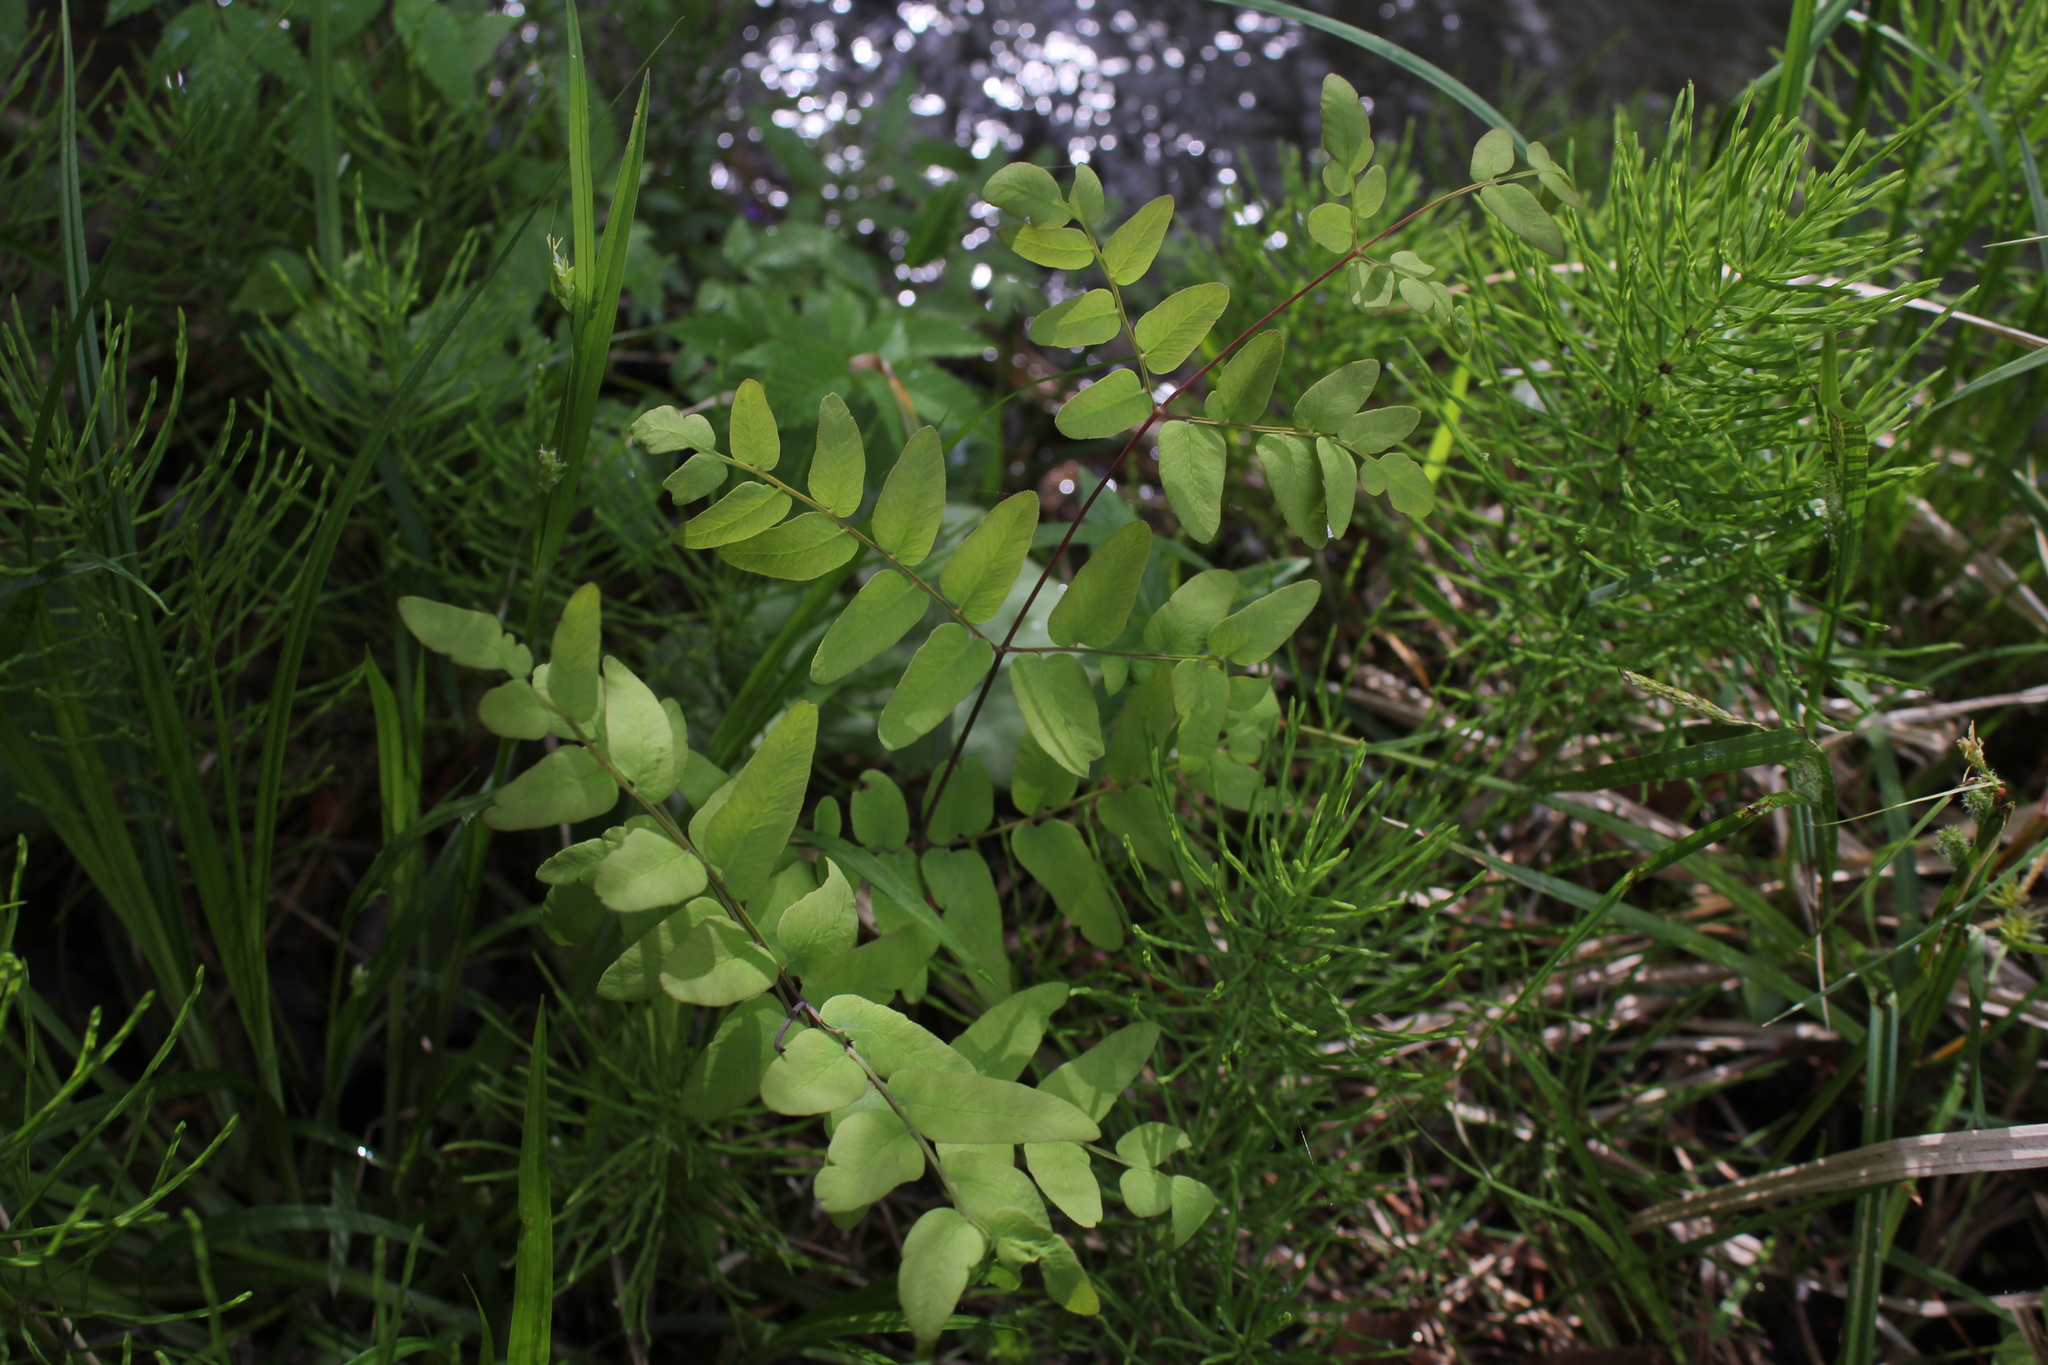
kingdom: Plantae
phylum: Tracheophyta
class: Polypodiopsida
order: Osmundales
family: Osmundaceae
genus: Osmunda
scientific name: Osmunda spectabilis
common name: American royal fern
